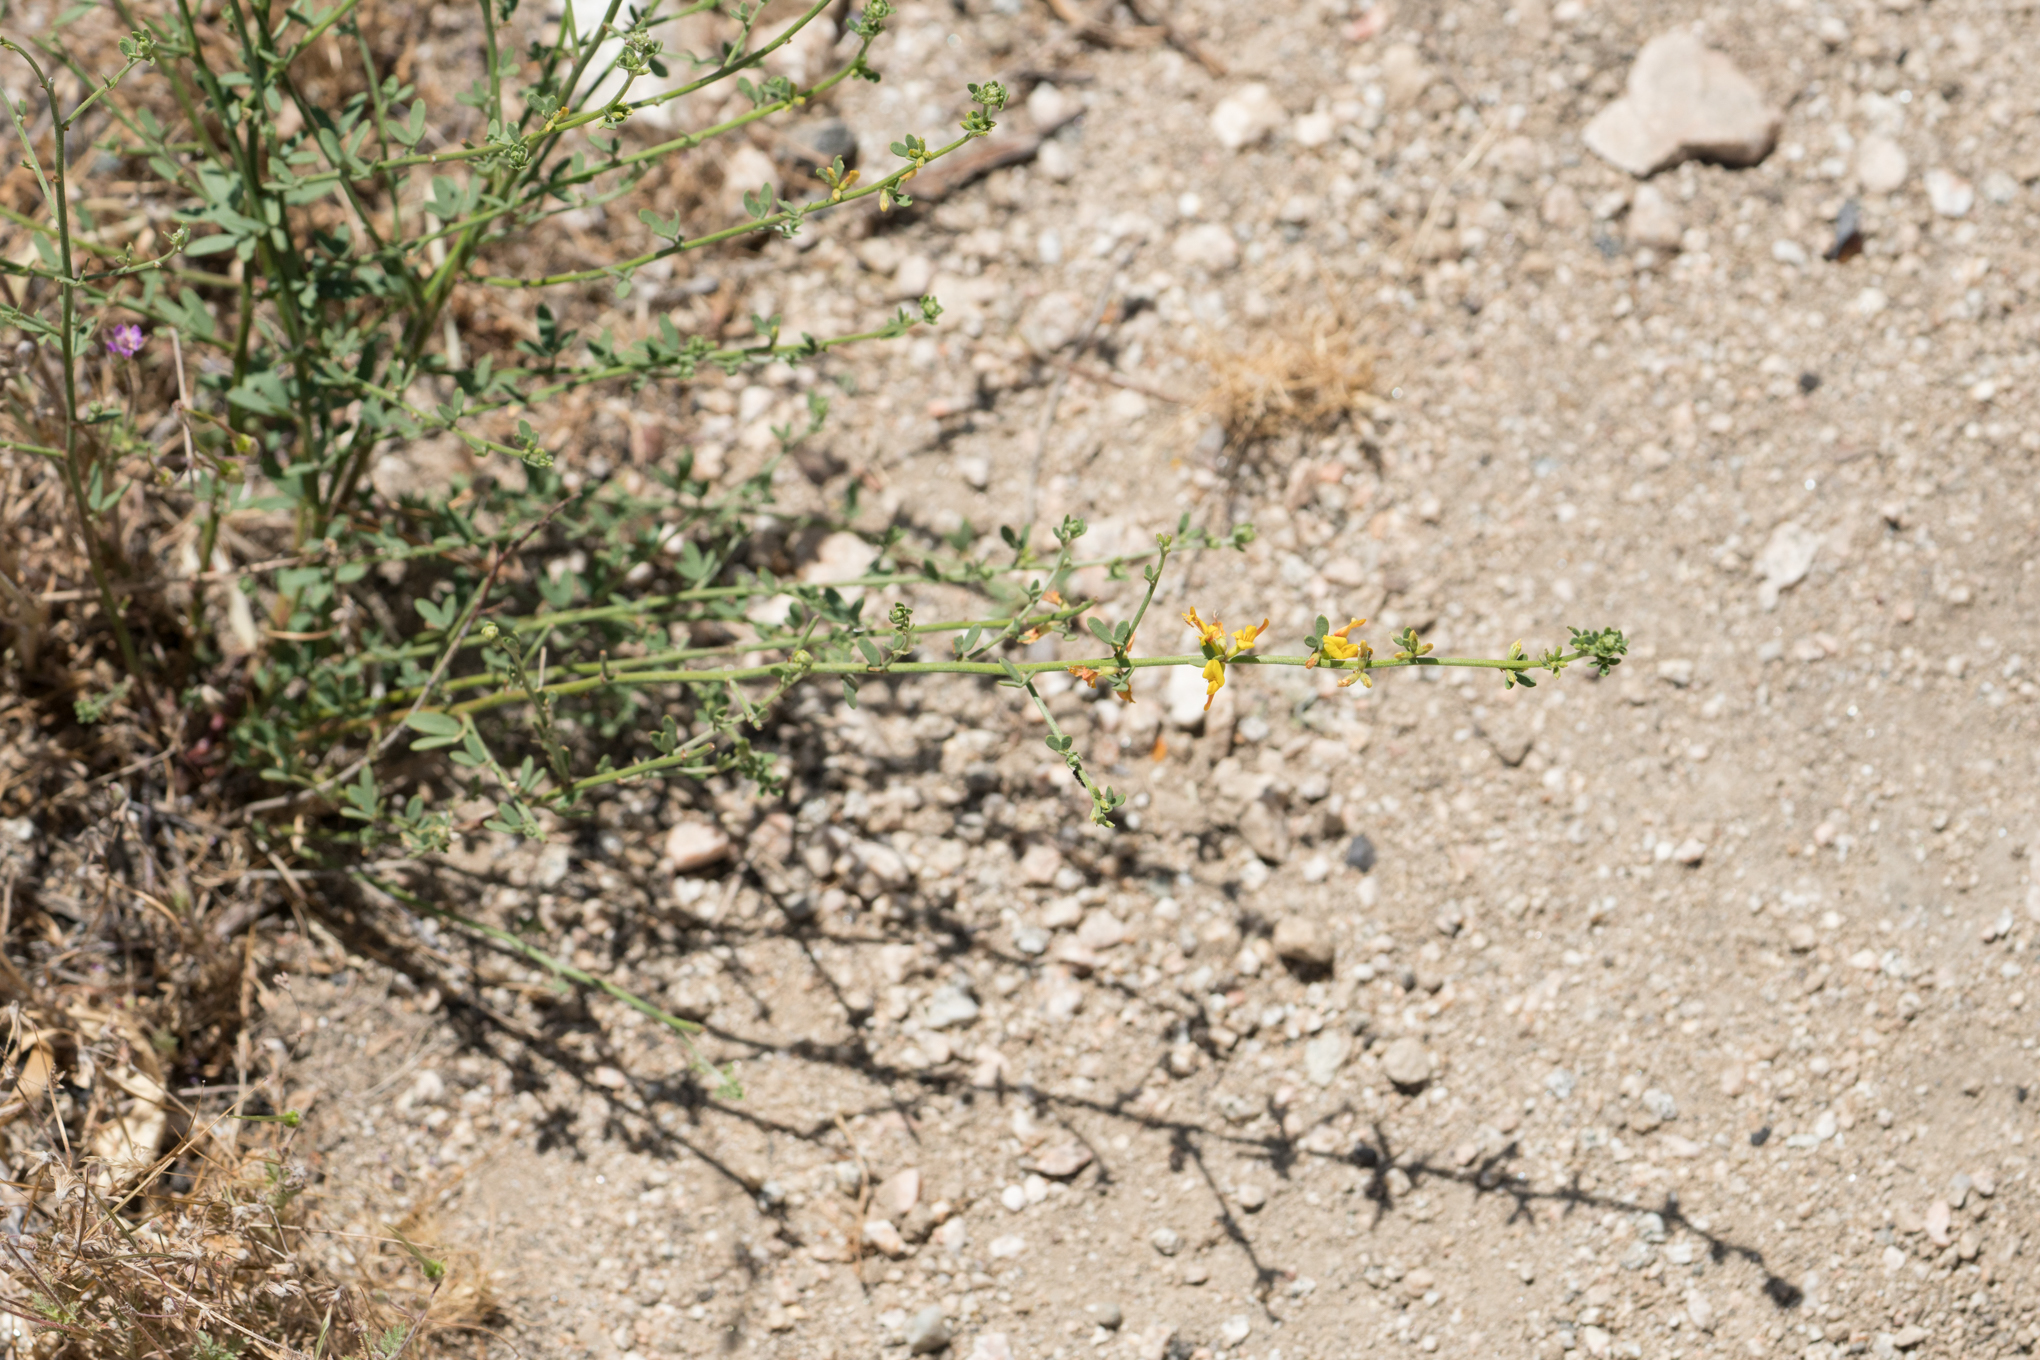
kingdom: Plantae
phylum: Tracheophyta
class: Magnoliopsida
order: Fabales
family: Fabaceae
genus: Acmispon
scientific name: Acmispon glaber
